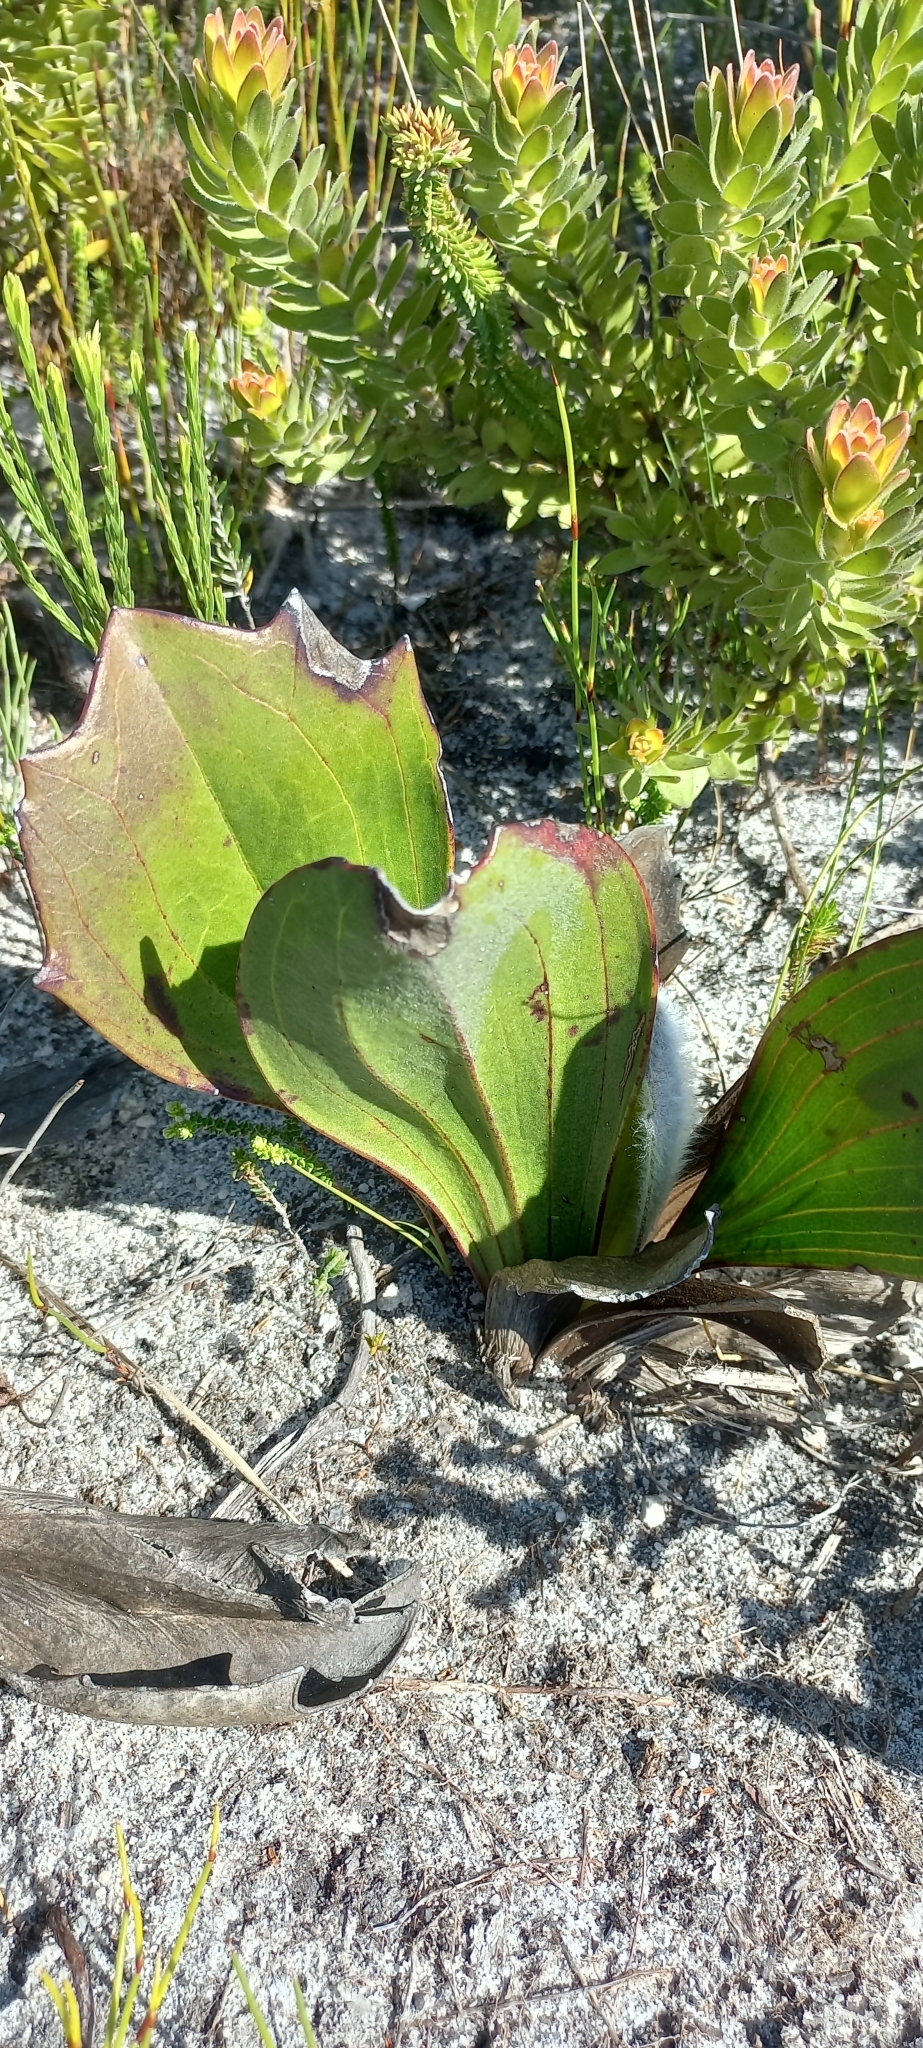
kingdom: Plantae
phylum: Tracheophyta
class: Magnoliopsida
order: Asterales
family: Asteraceae
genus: Mairia
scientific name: Mairia coriacea
